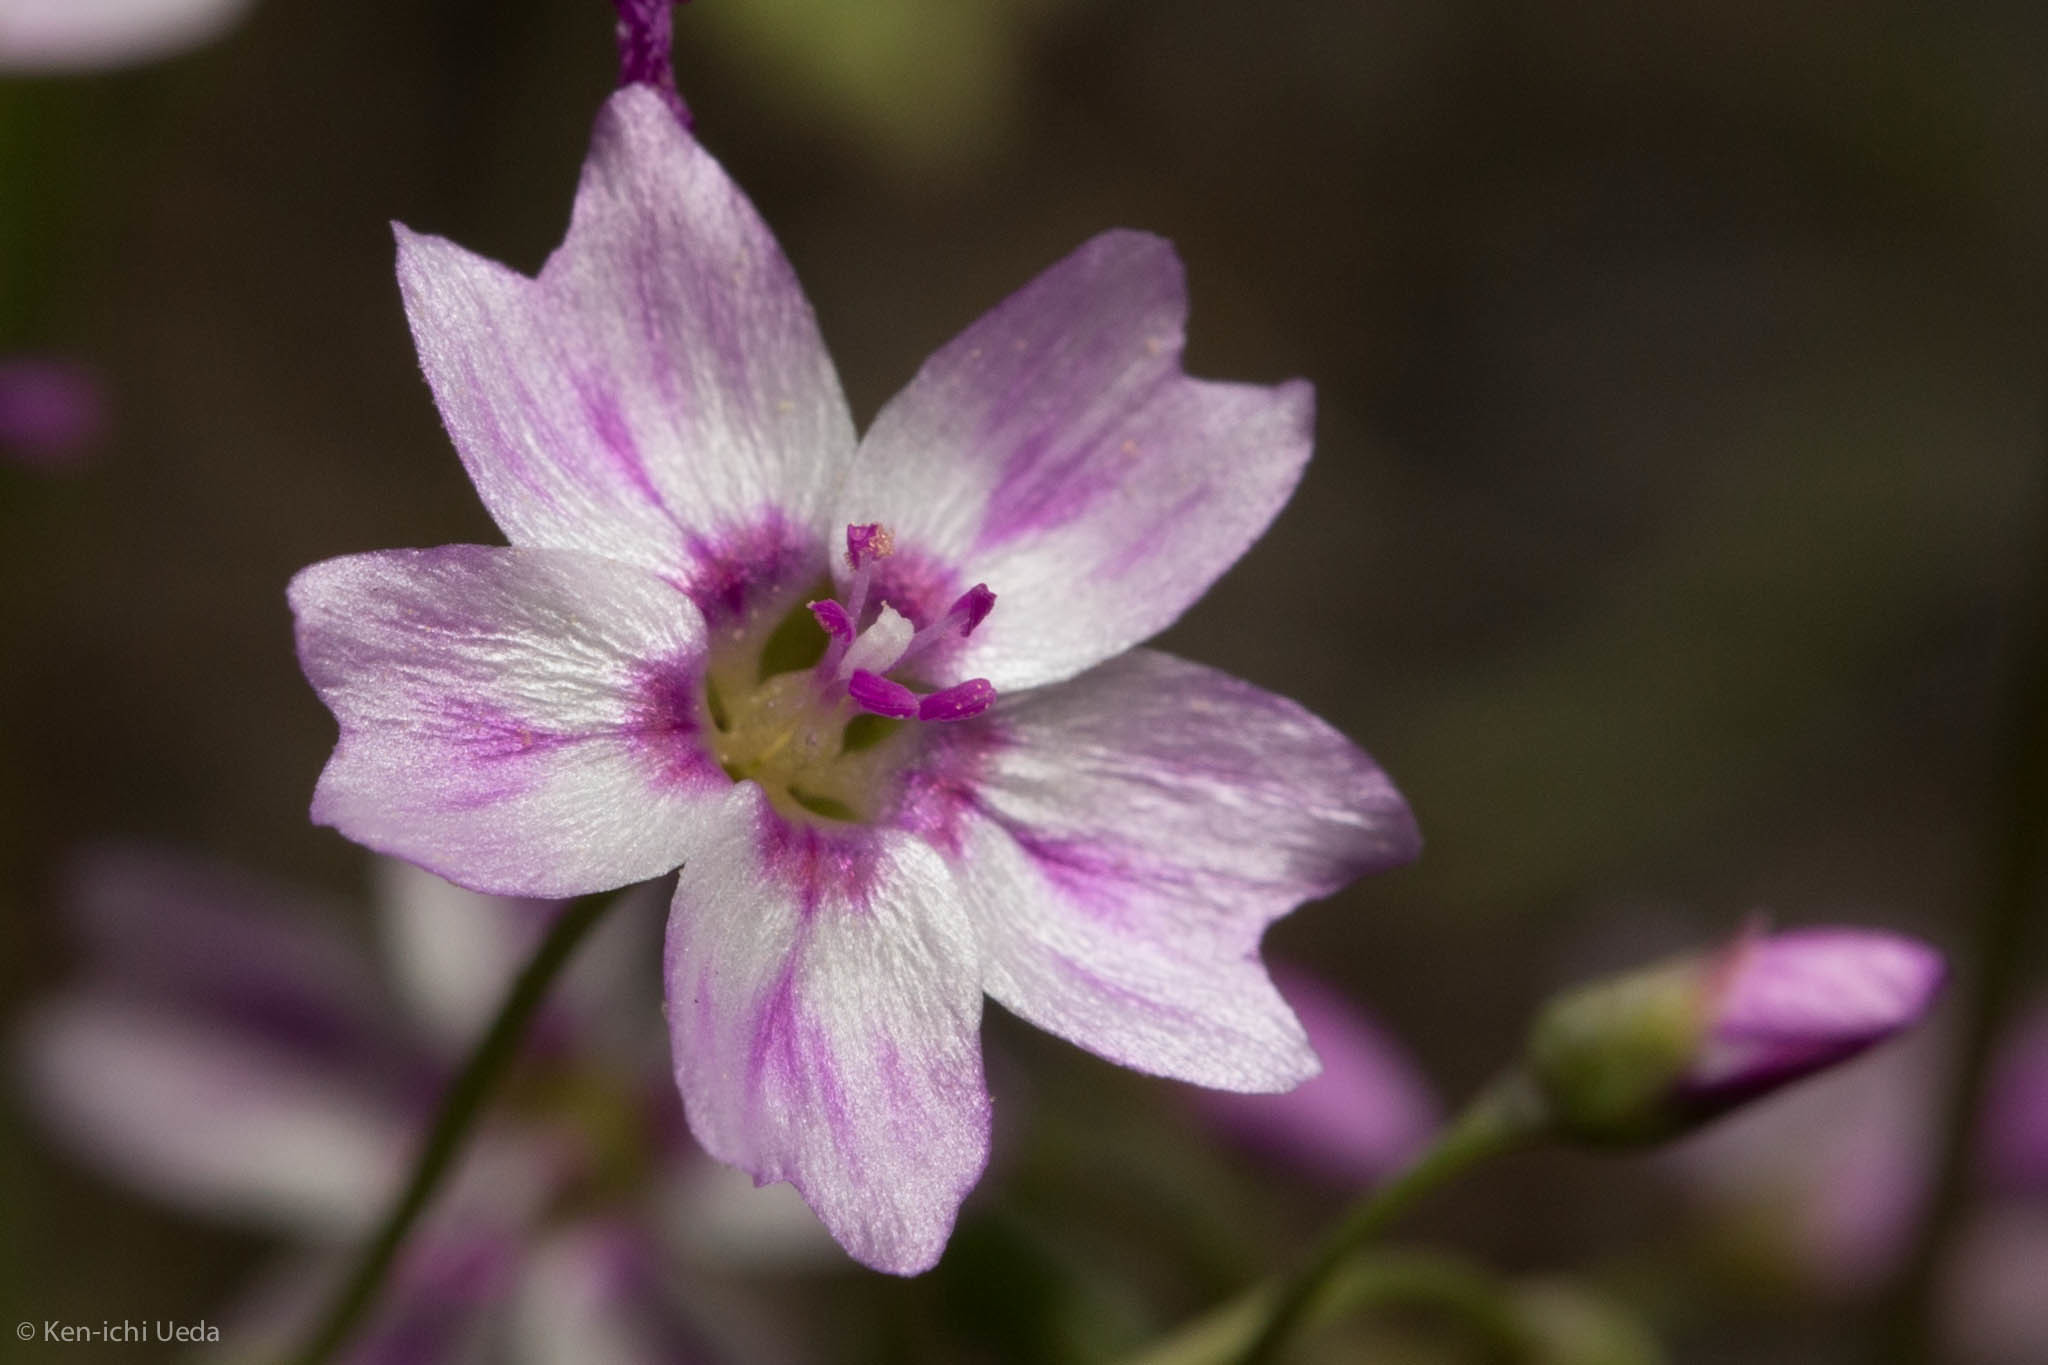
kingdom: Plantae
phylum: Tracheophyta
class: Magnoliopsida
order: Caryophyllales
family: Montiaceae
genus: Claytonia
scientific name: Claytonia gypsophiloides
